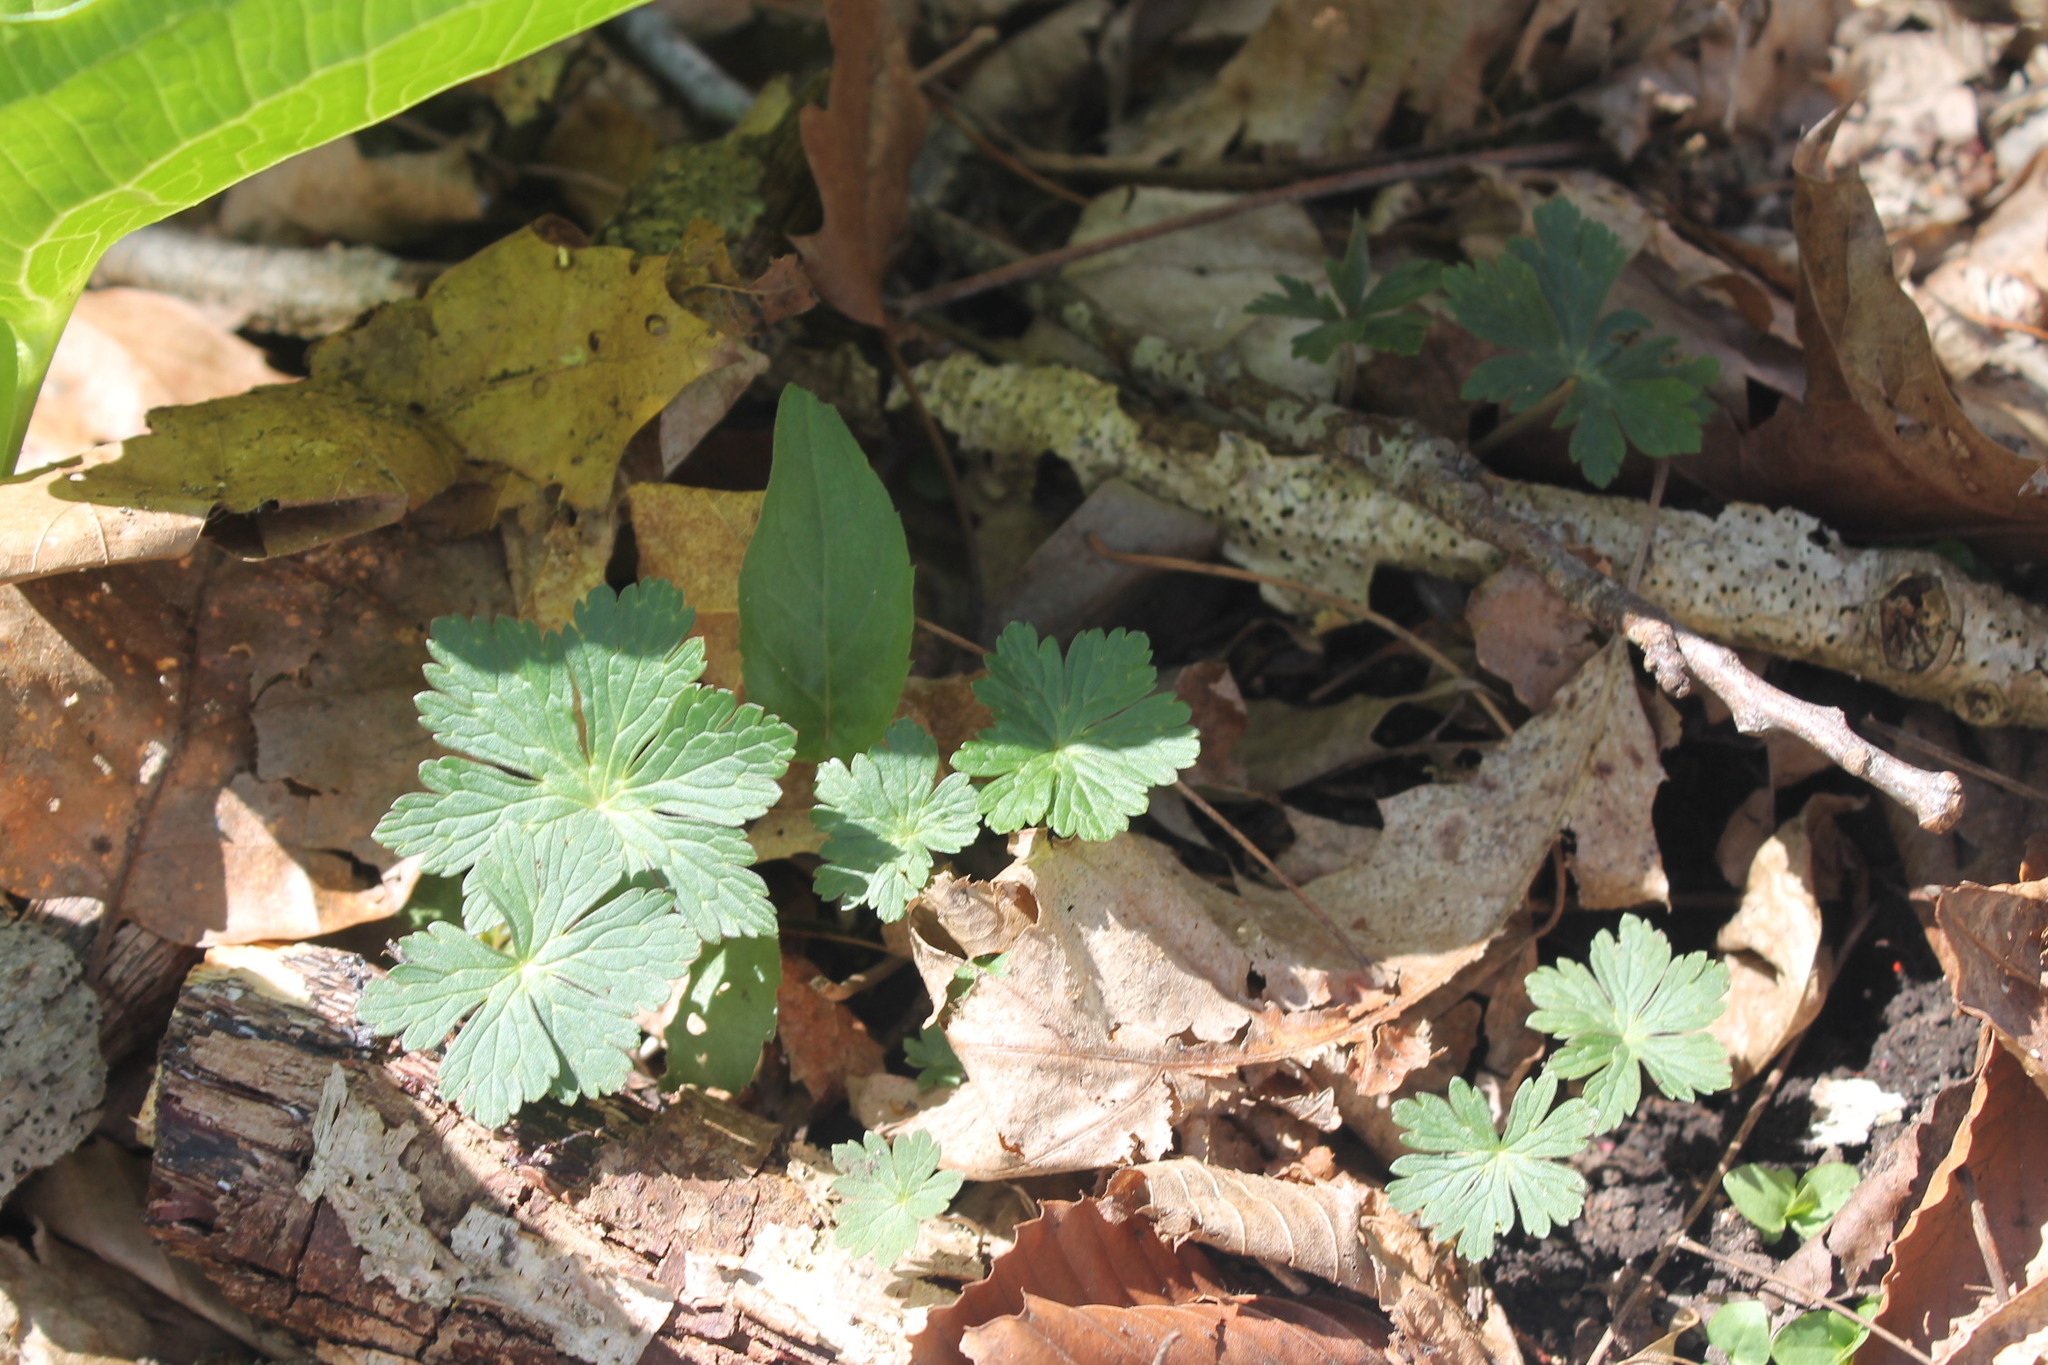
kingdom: Plantae
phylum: Tracheophyta
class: Magnoliopsida
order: Geraniales
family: Geraniaceae
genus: Geranium
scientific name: Geranium maculatum
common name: Spotted geranium
